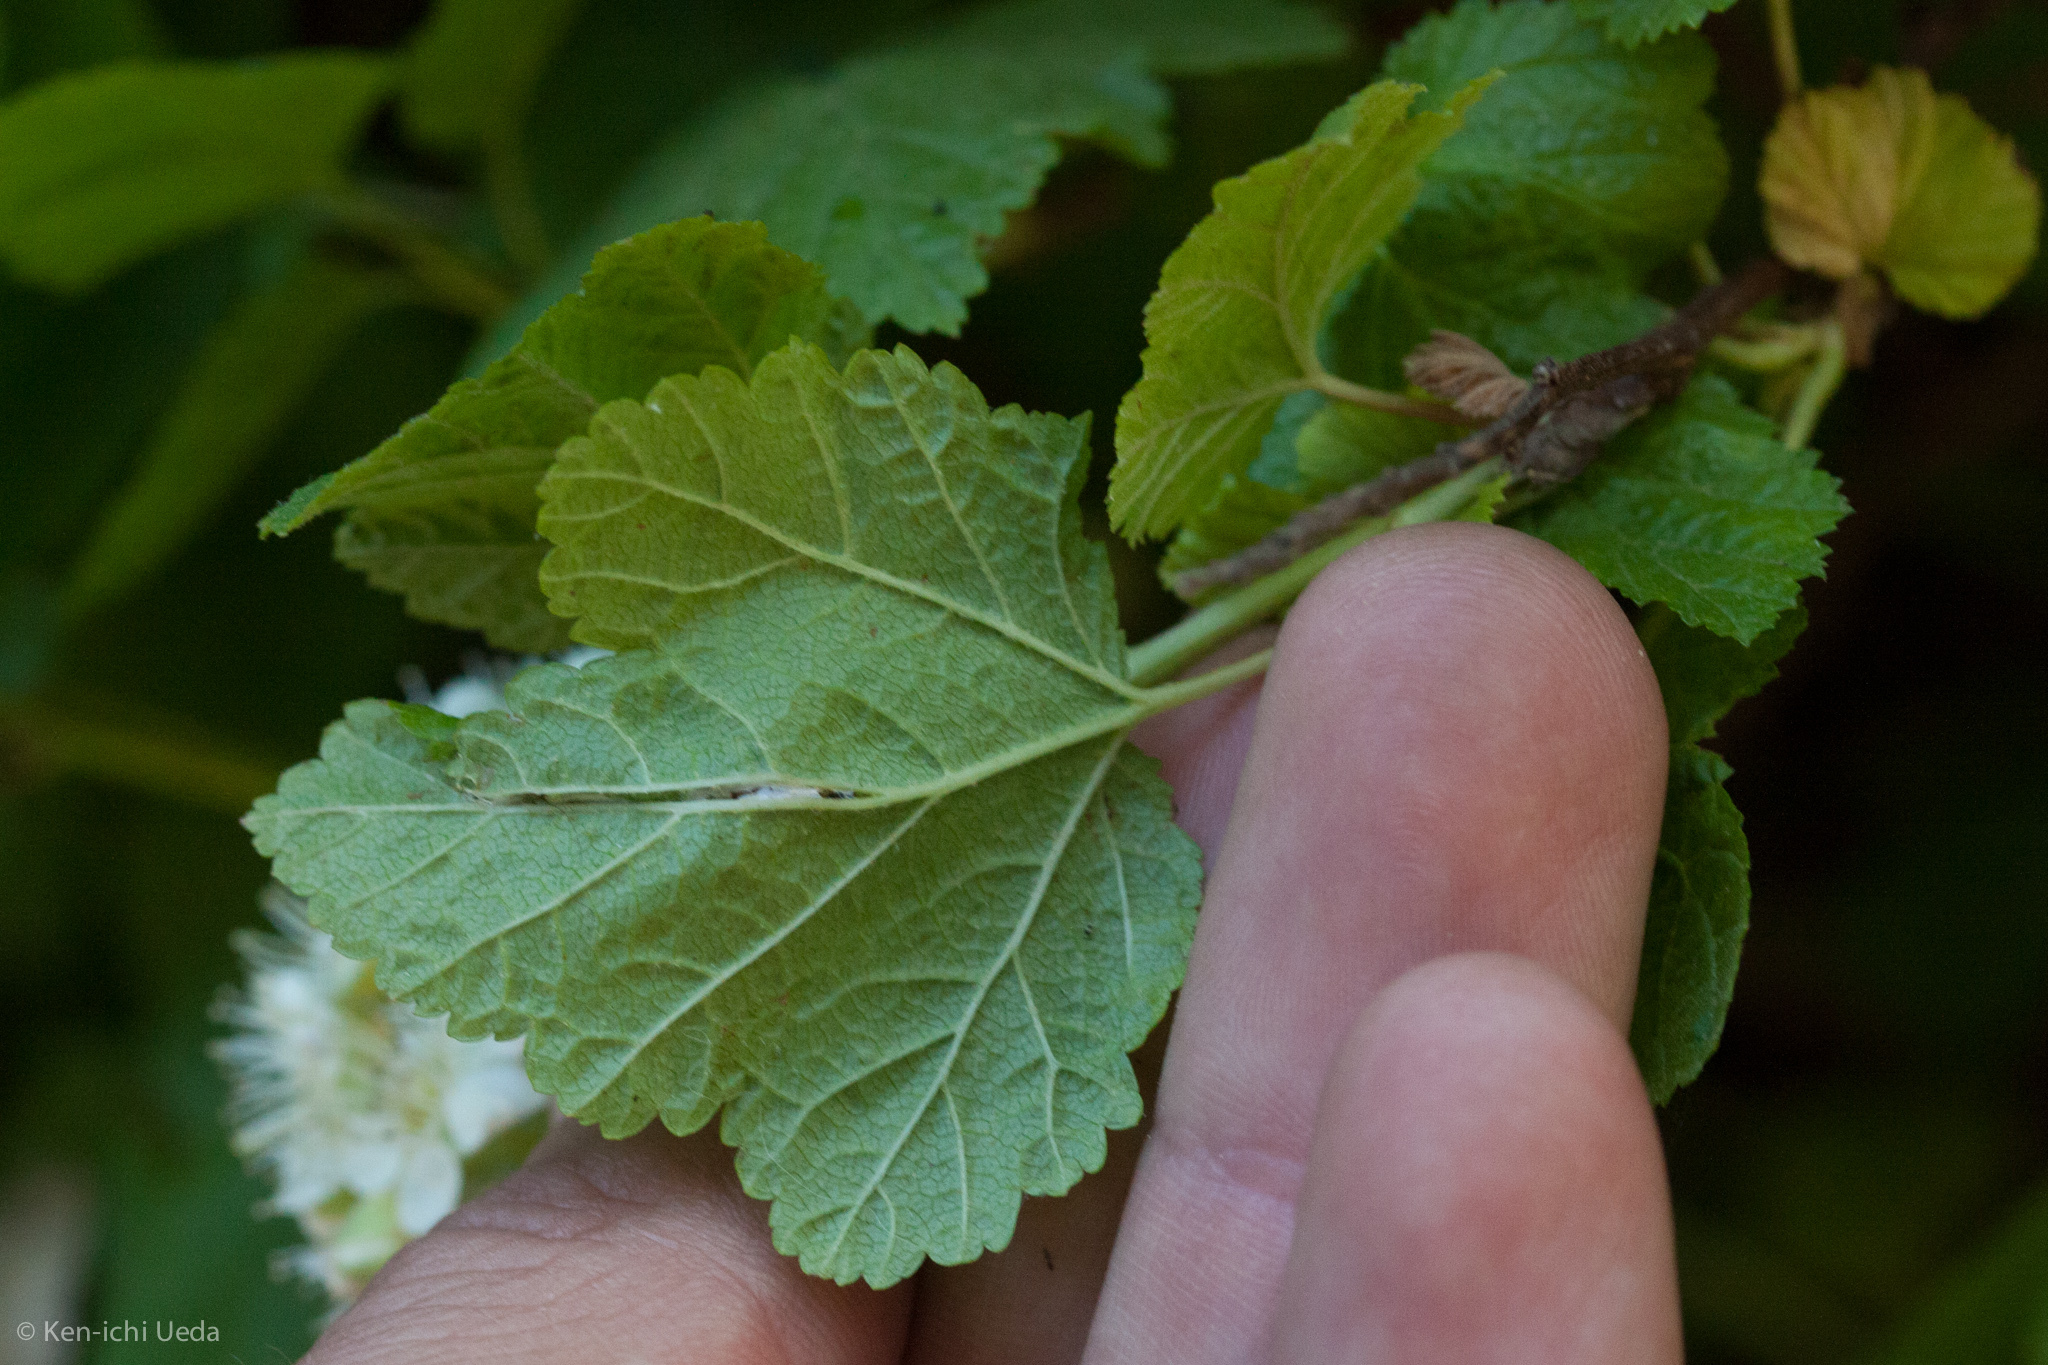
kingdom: Plantae
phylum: Tracheophyta
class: Magnoliopsida
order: Rosales
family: Rosaceae
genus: Physocarpus
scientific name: Physocarpus capitatus
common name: Pacific ninebark
